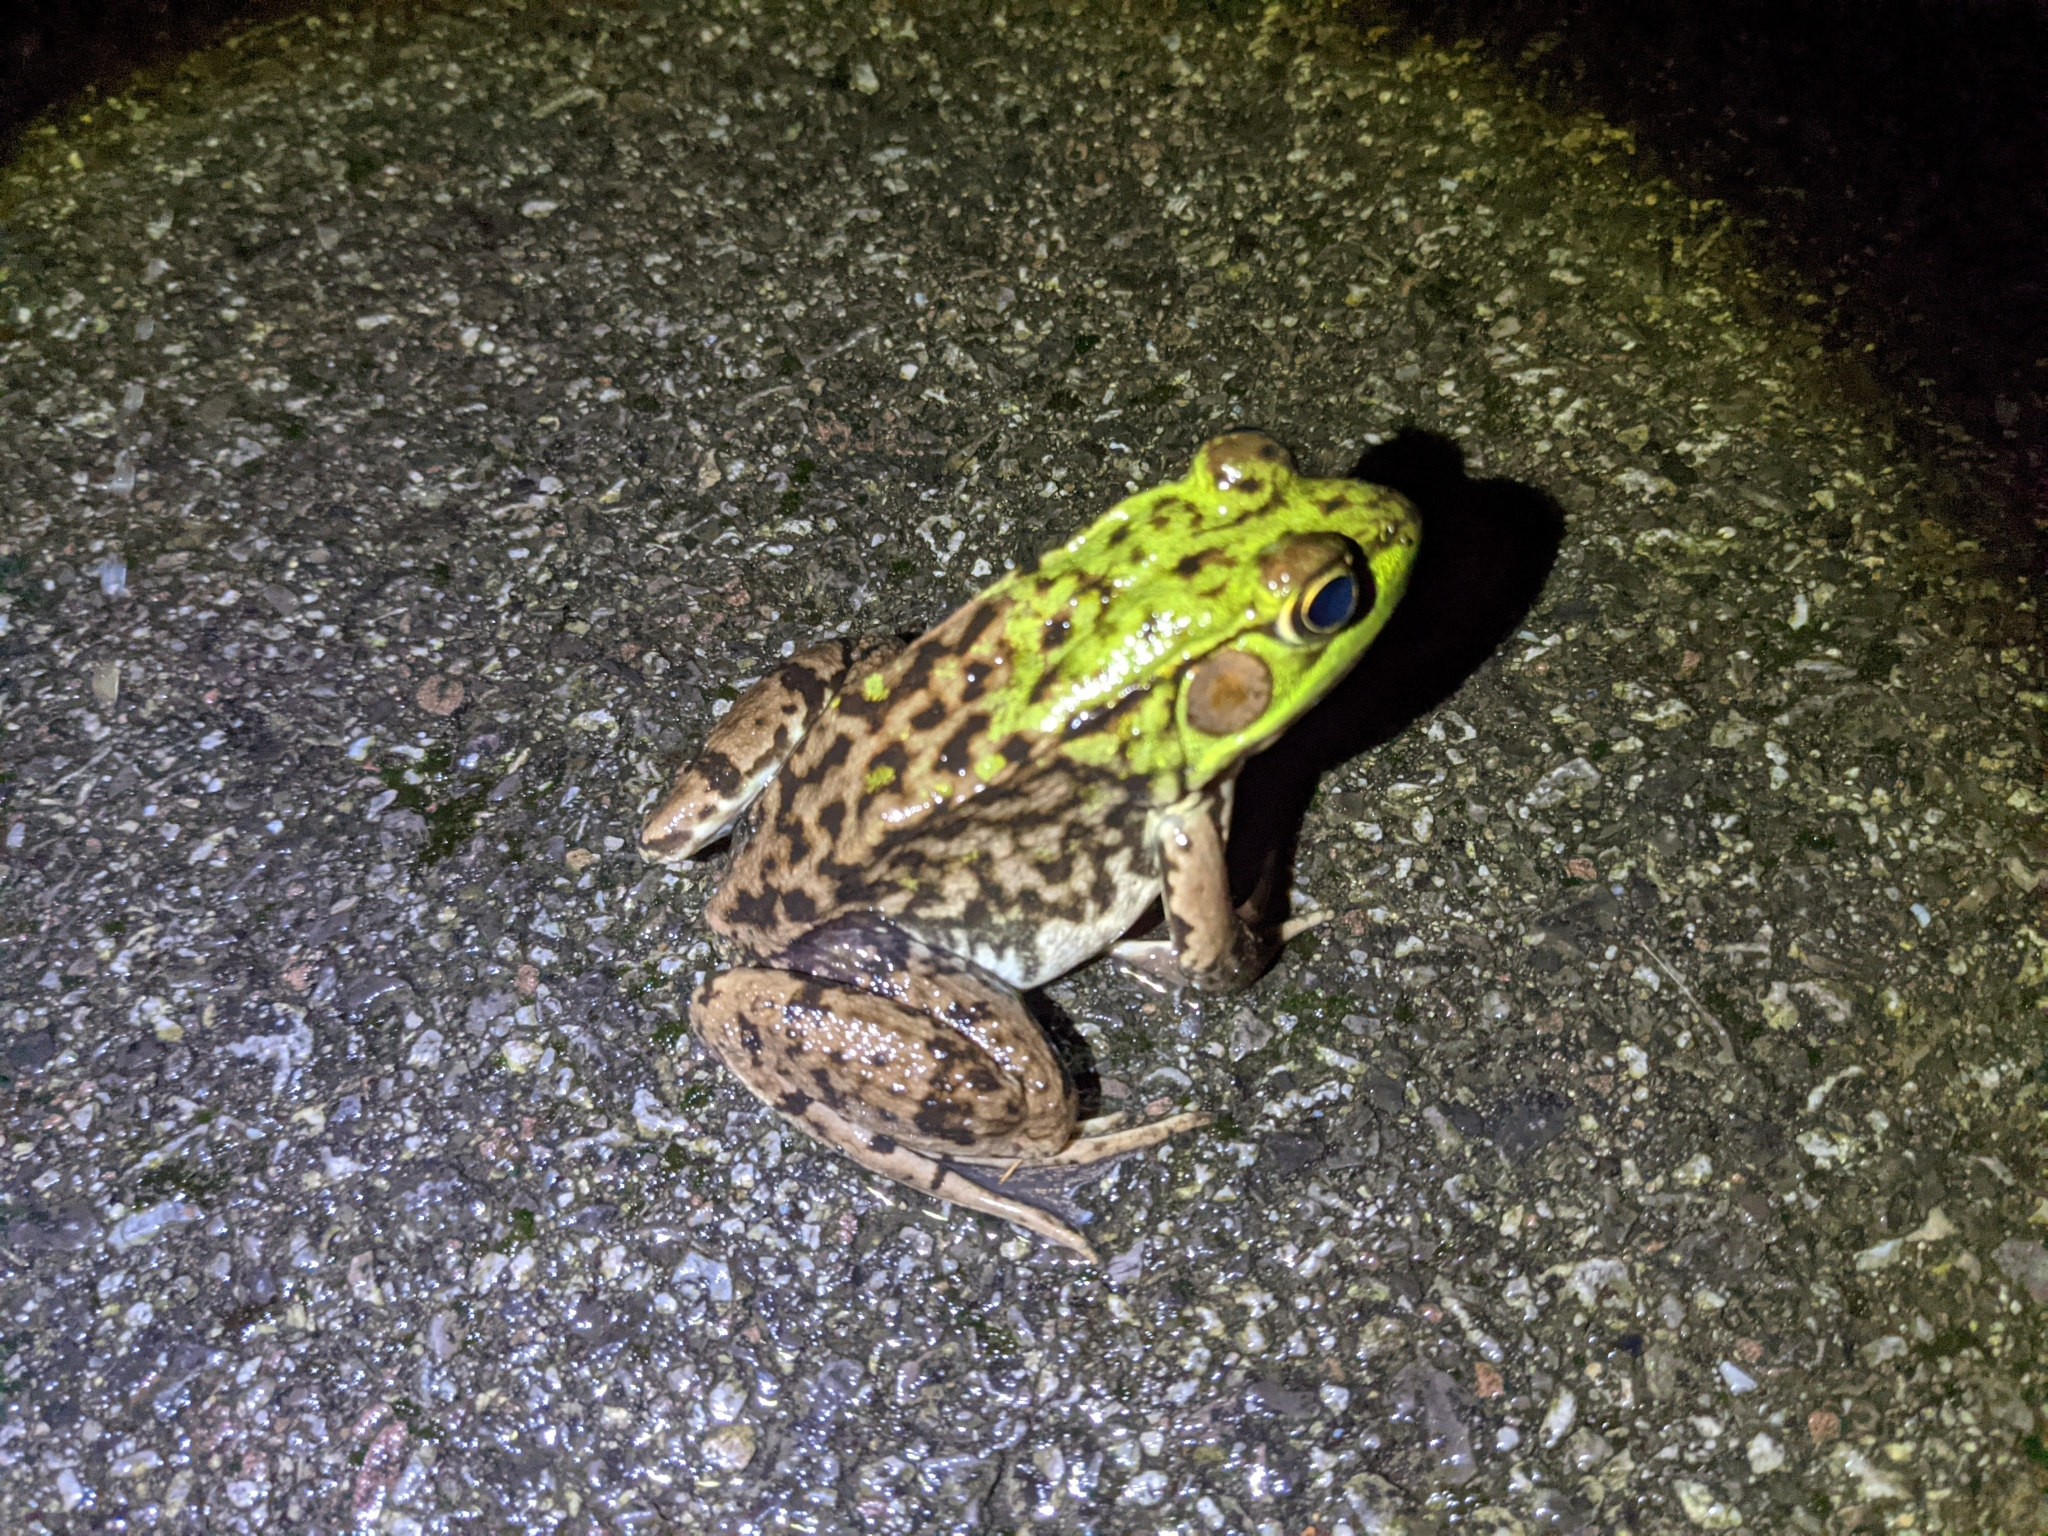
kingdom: Animalia
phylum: Chordata
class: Amphibia
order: Anura
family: Ranidae
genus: Lithobates
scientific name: Lithobates clamitans
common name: Green frog
